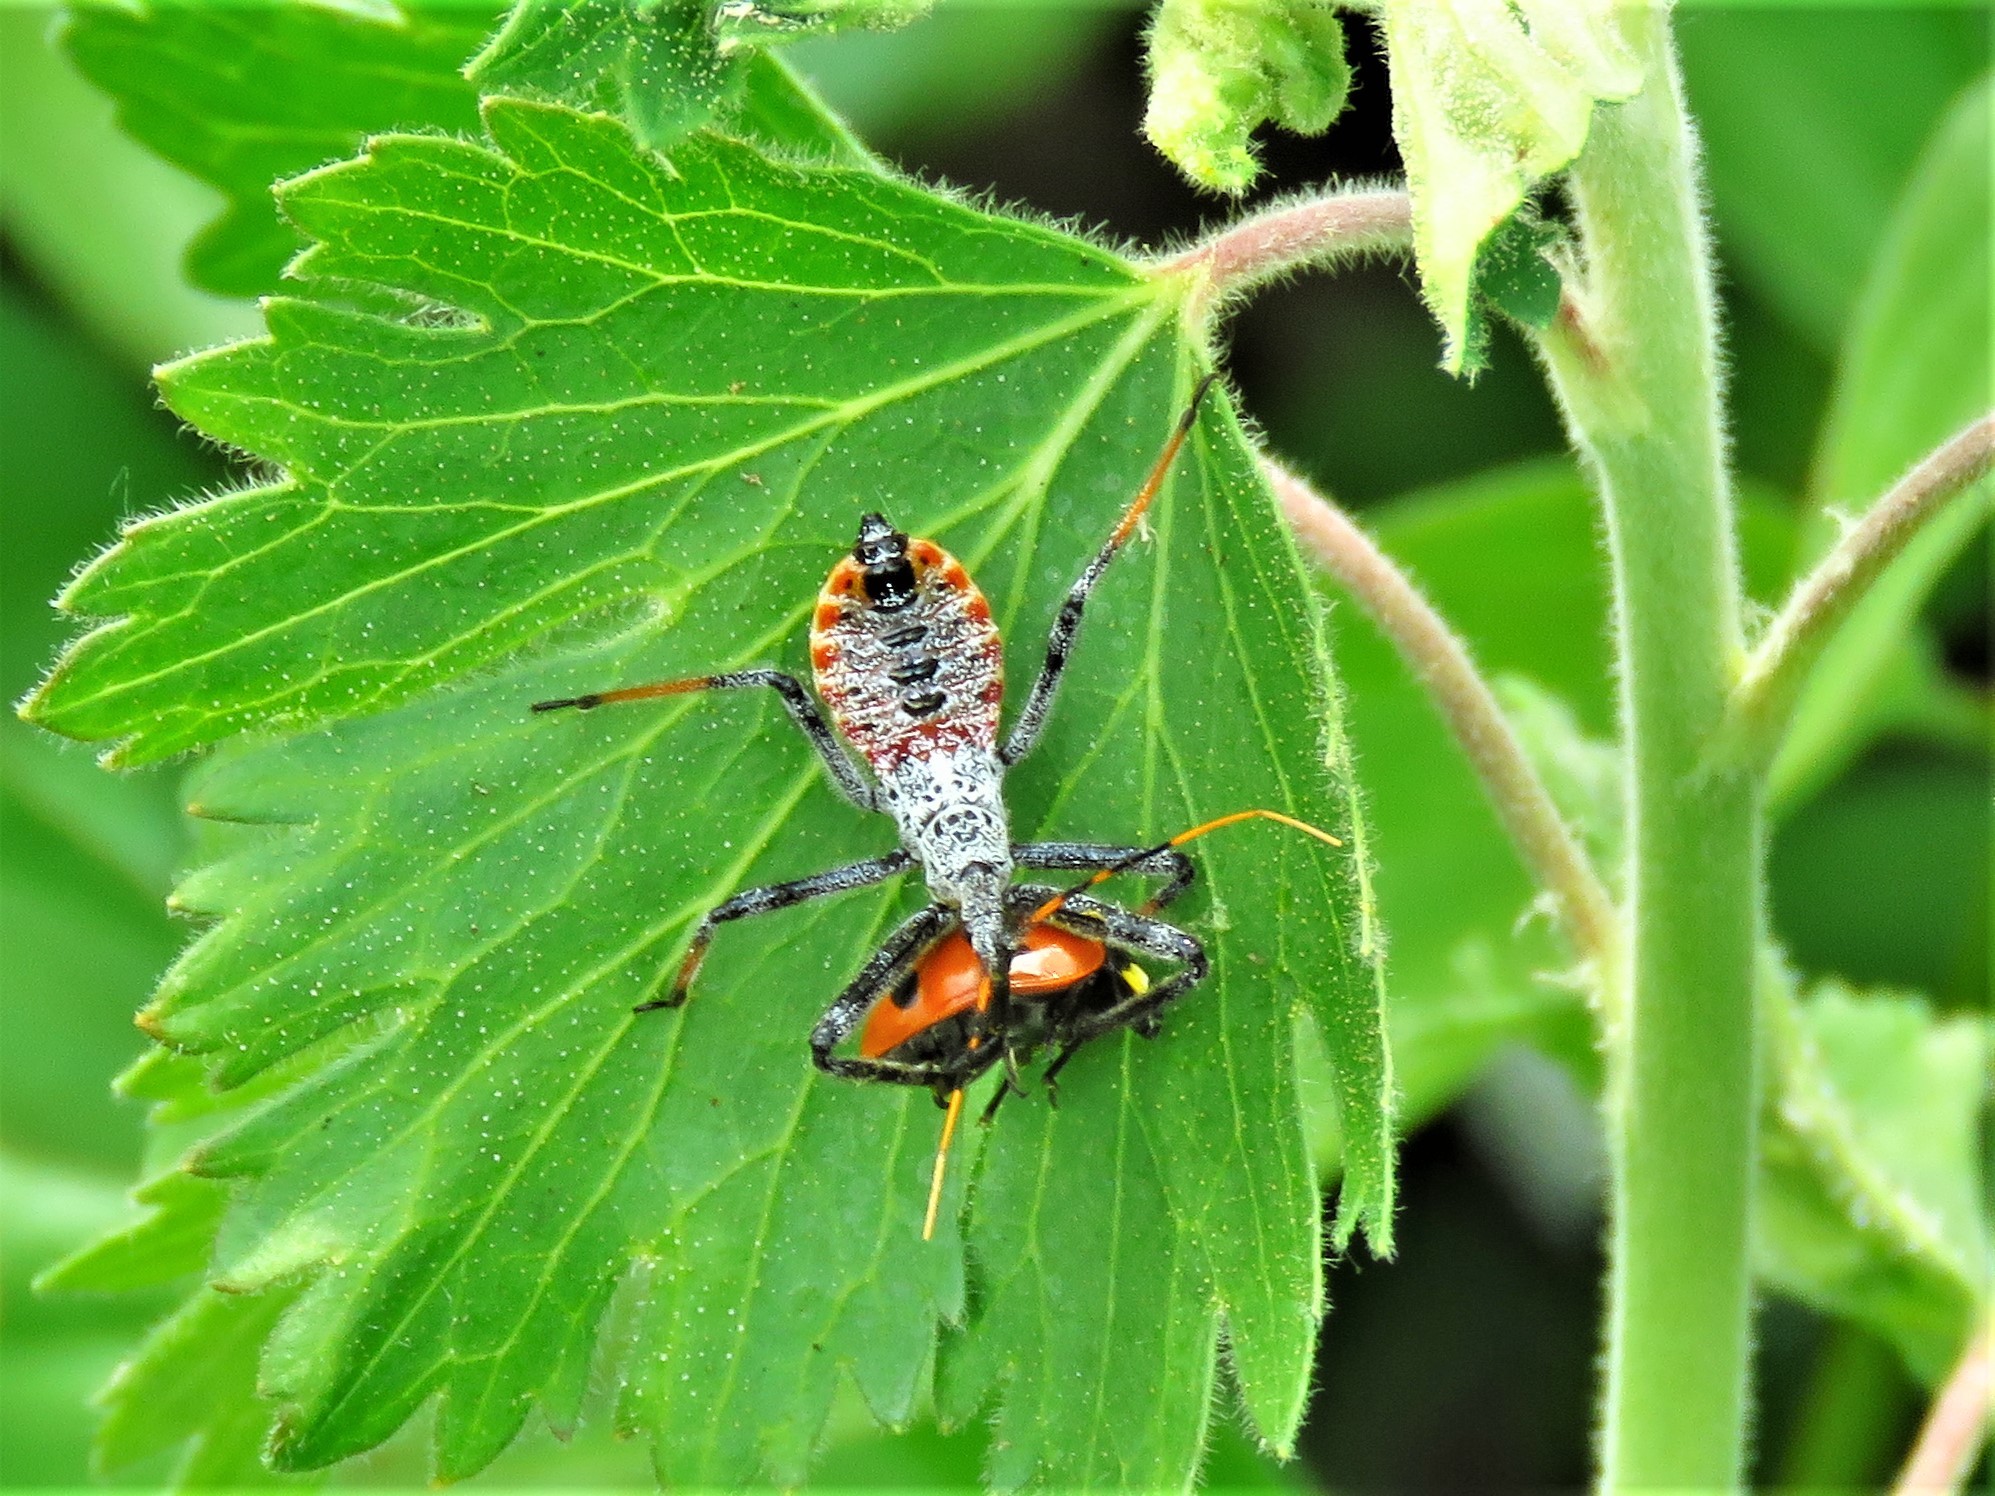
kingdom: Animalia
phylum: Arthropoda
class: Insecta
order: Hemiptera
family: Reduviidae
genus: Arilus
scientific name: Arilus cristatus
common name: North american wheel bug
